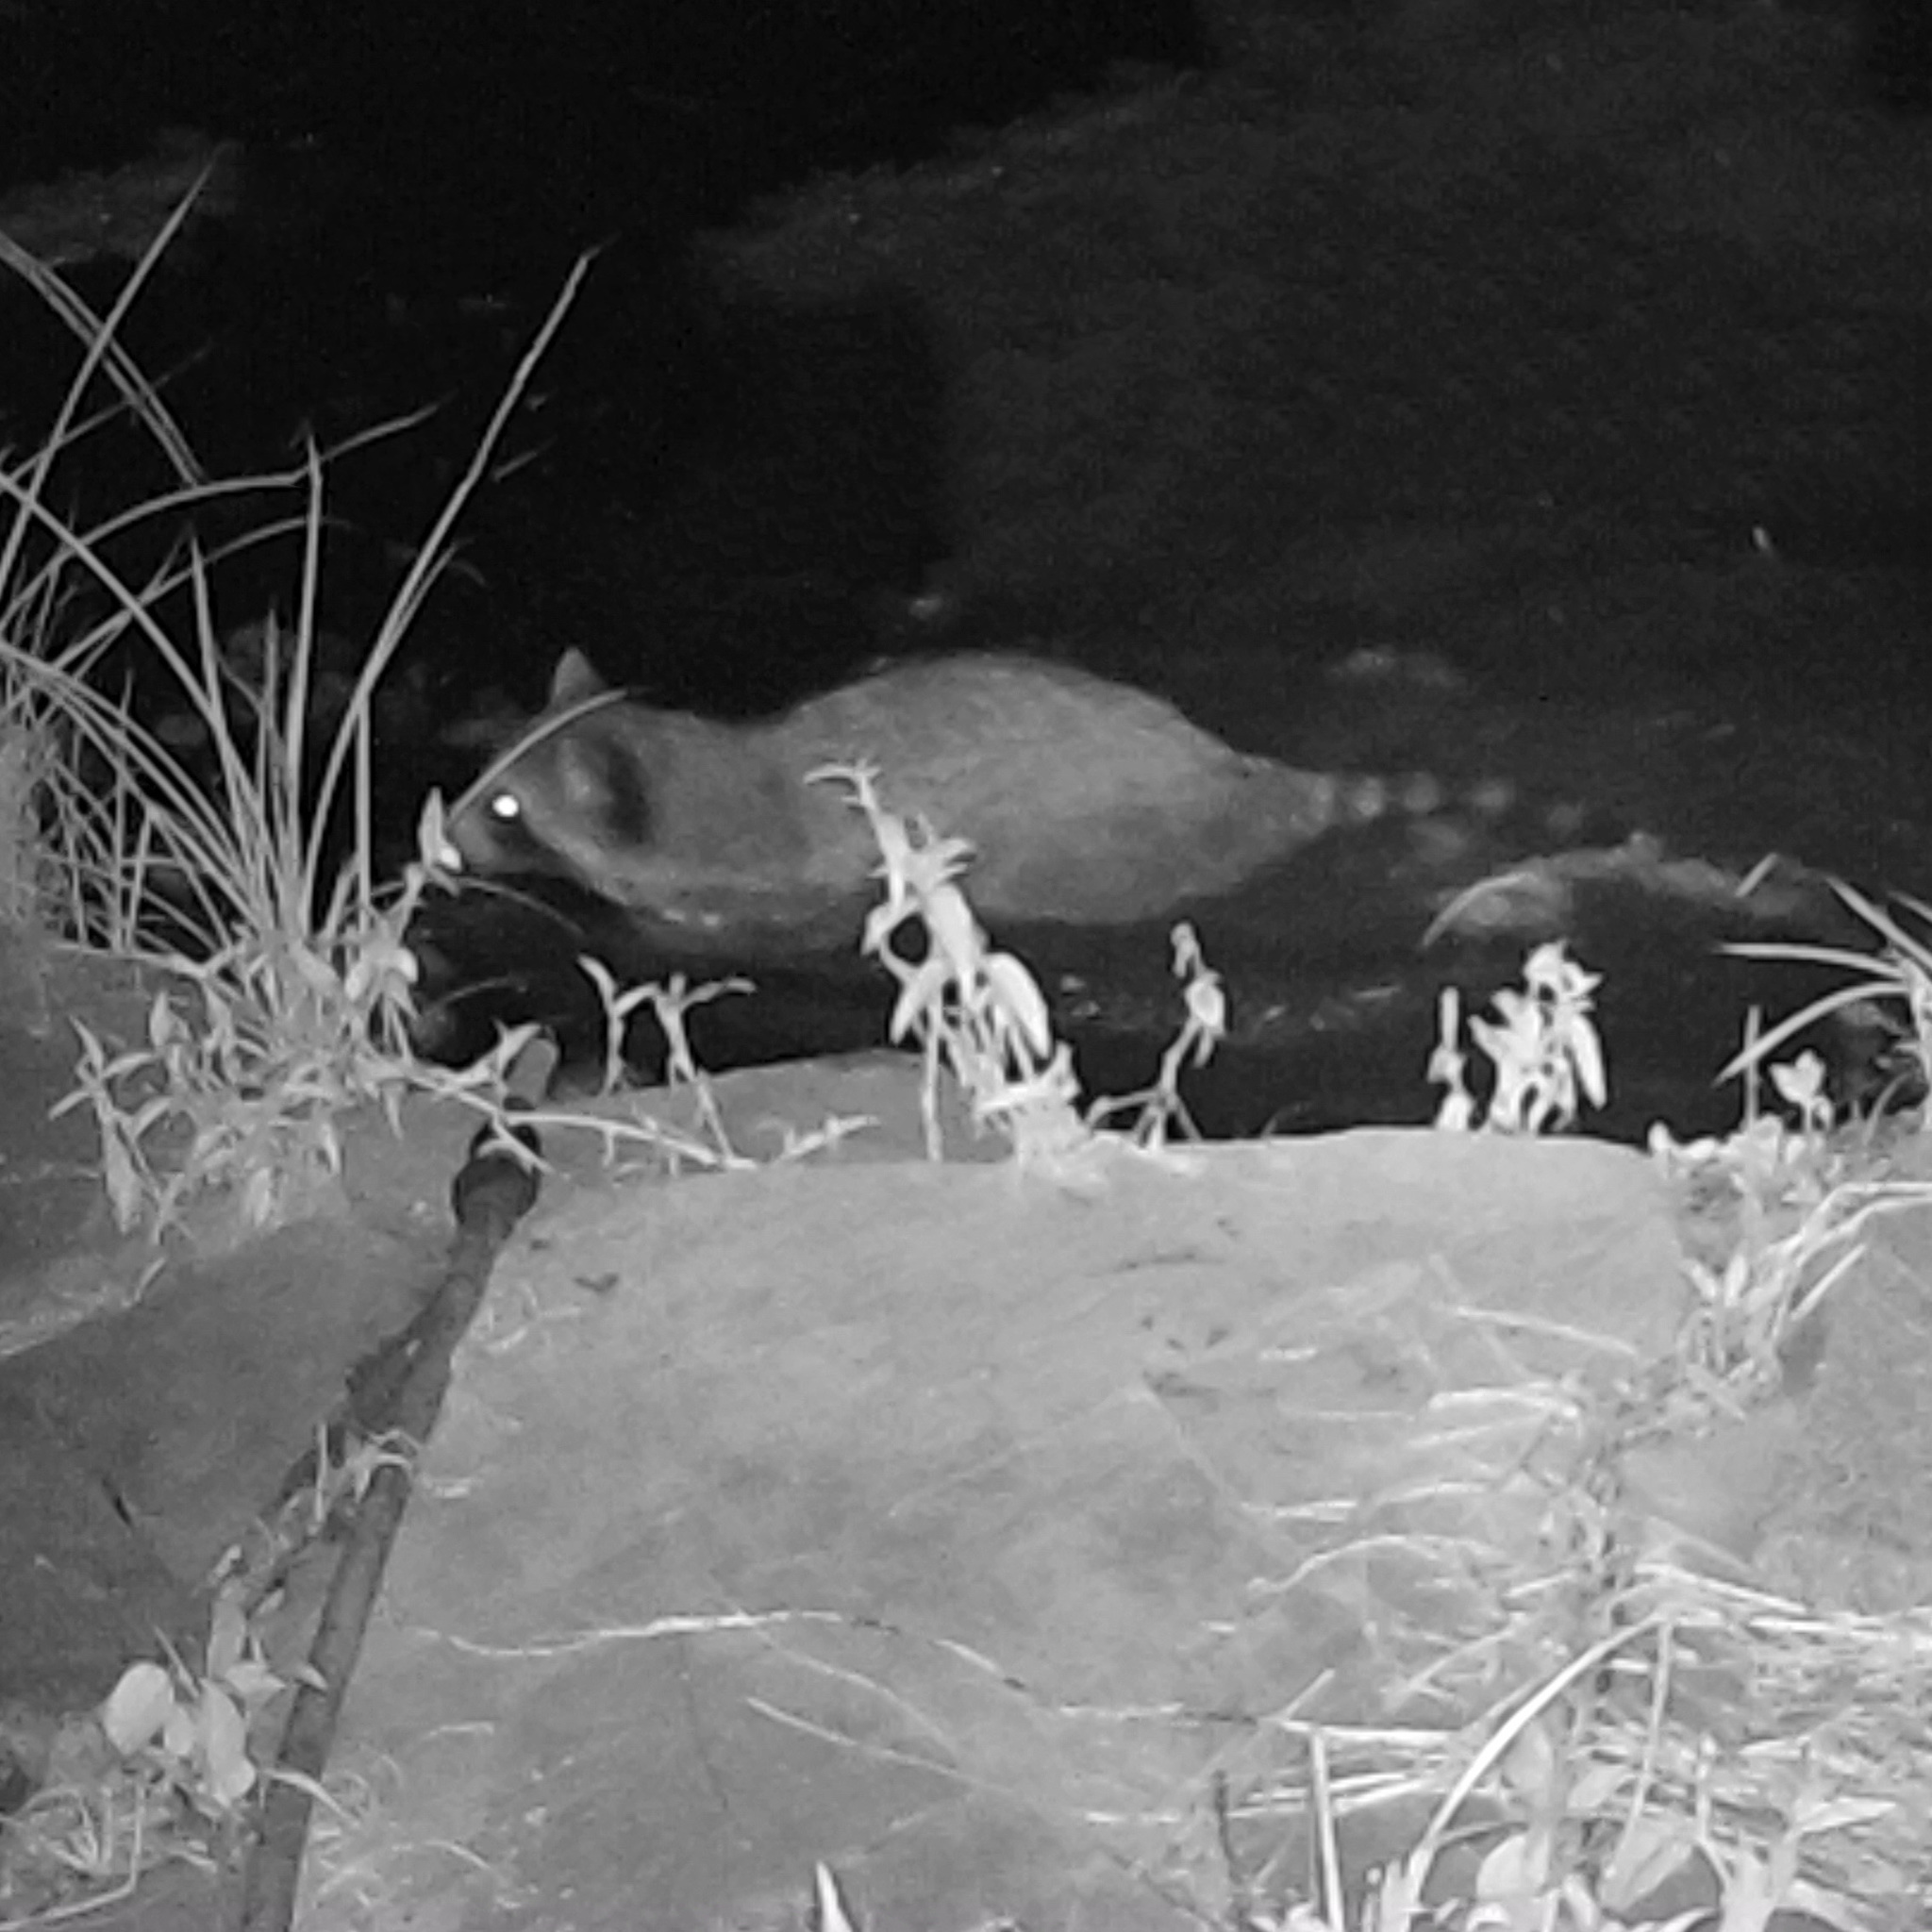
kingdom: Animalia
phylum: Chordata
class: Mammalia
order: Carnivora
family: Procyonidae
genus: Procyon
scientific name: Procyon lotor
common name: Raccoon
